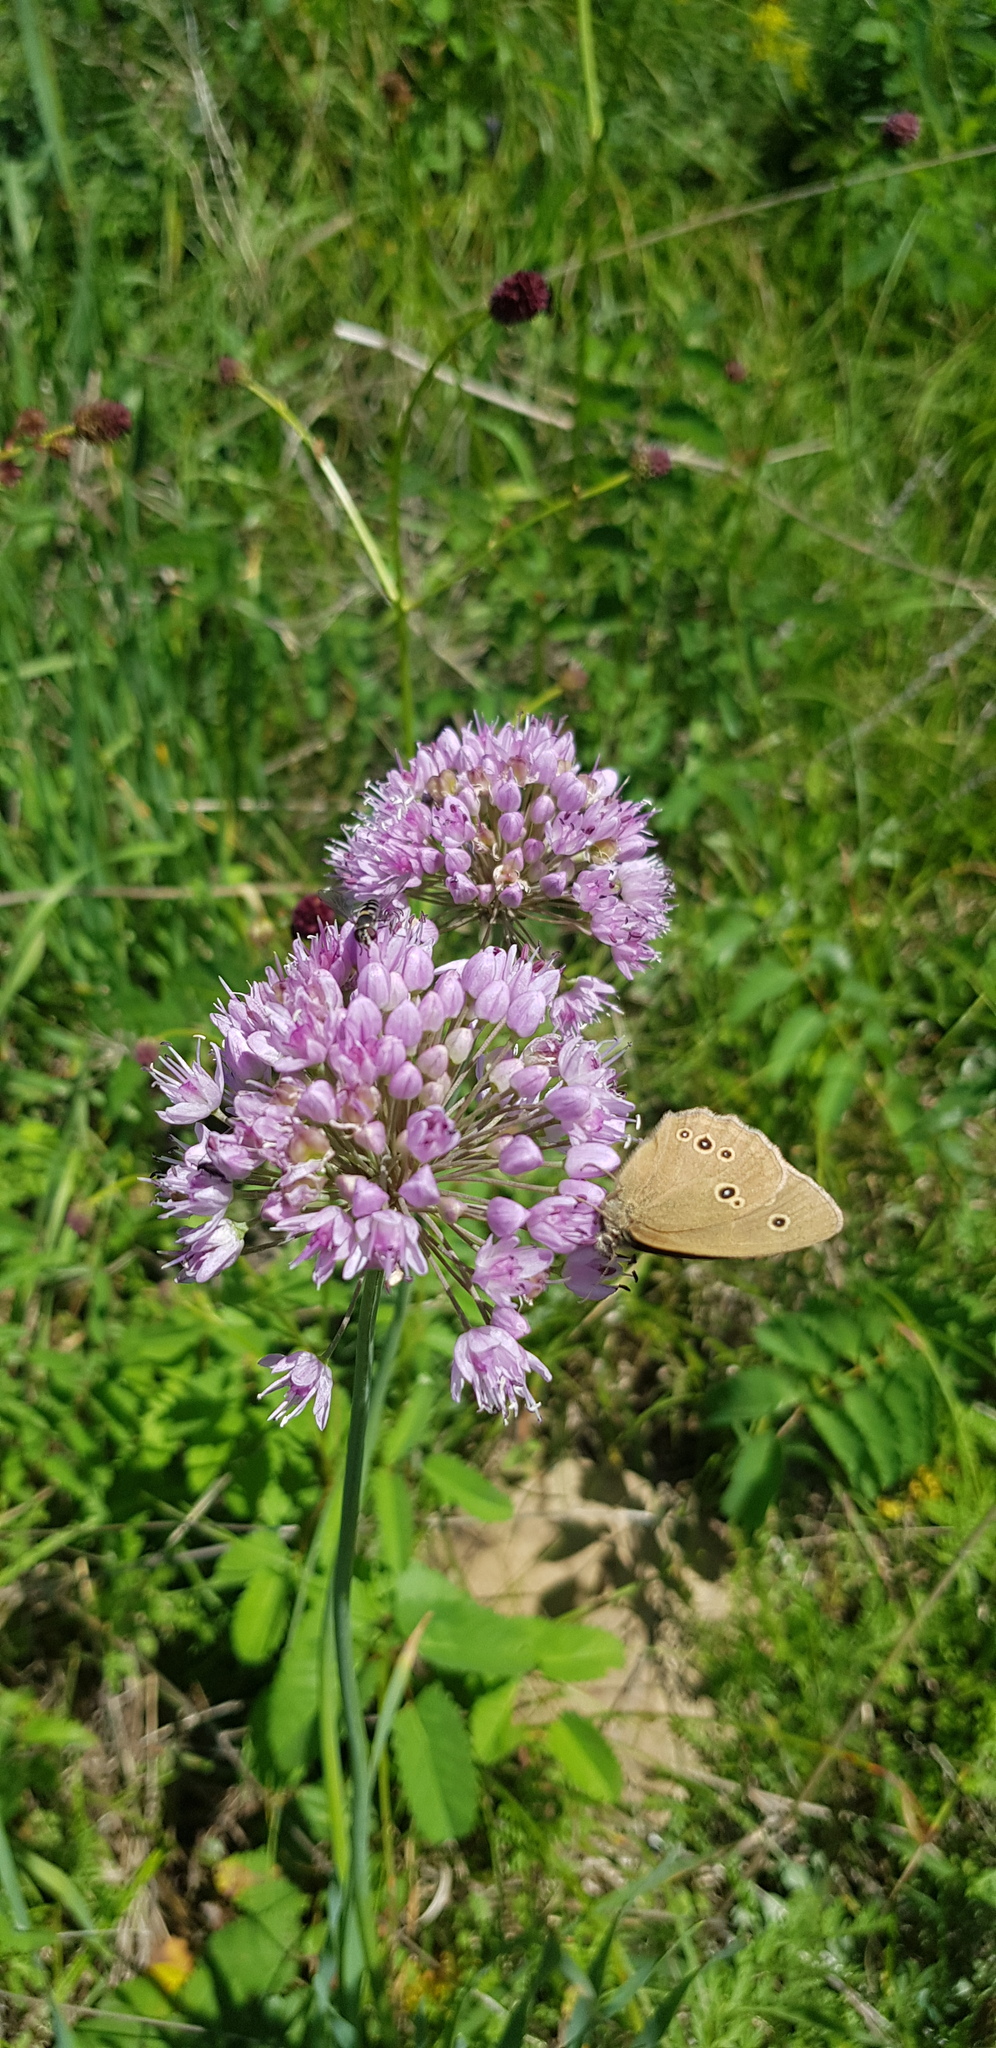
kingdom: Plantae
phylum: Tracheophyta
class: Liliopsida
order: Asparagales
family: Amaryllidaceae
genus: Allium
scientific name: Allium senescens
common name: German garlic
